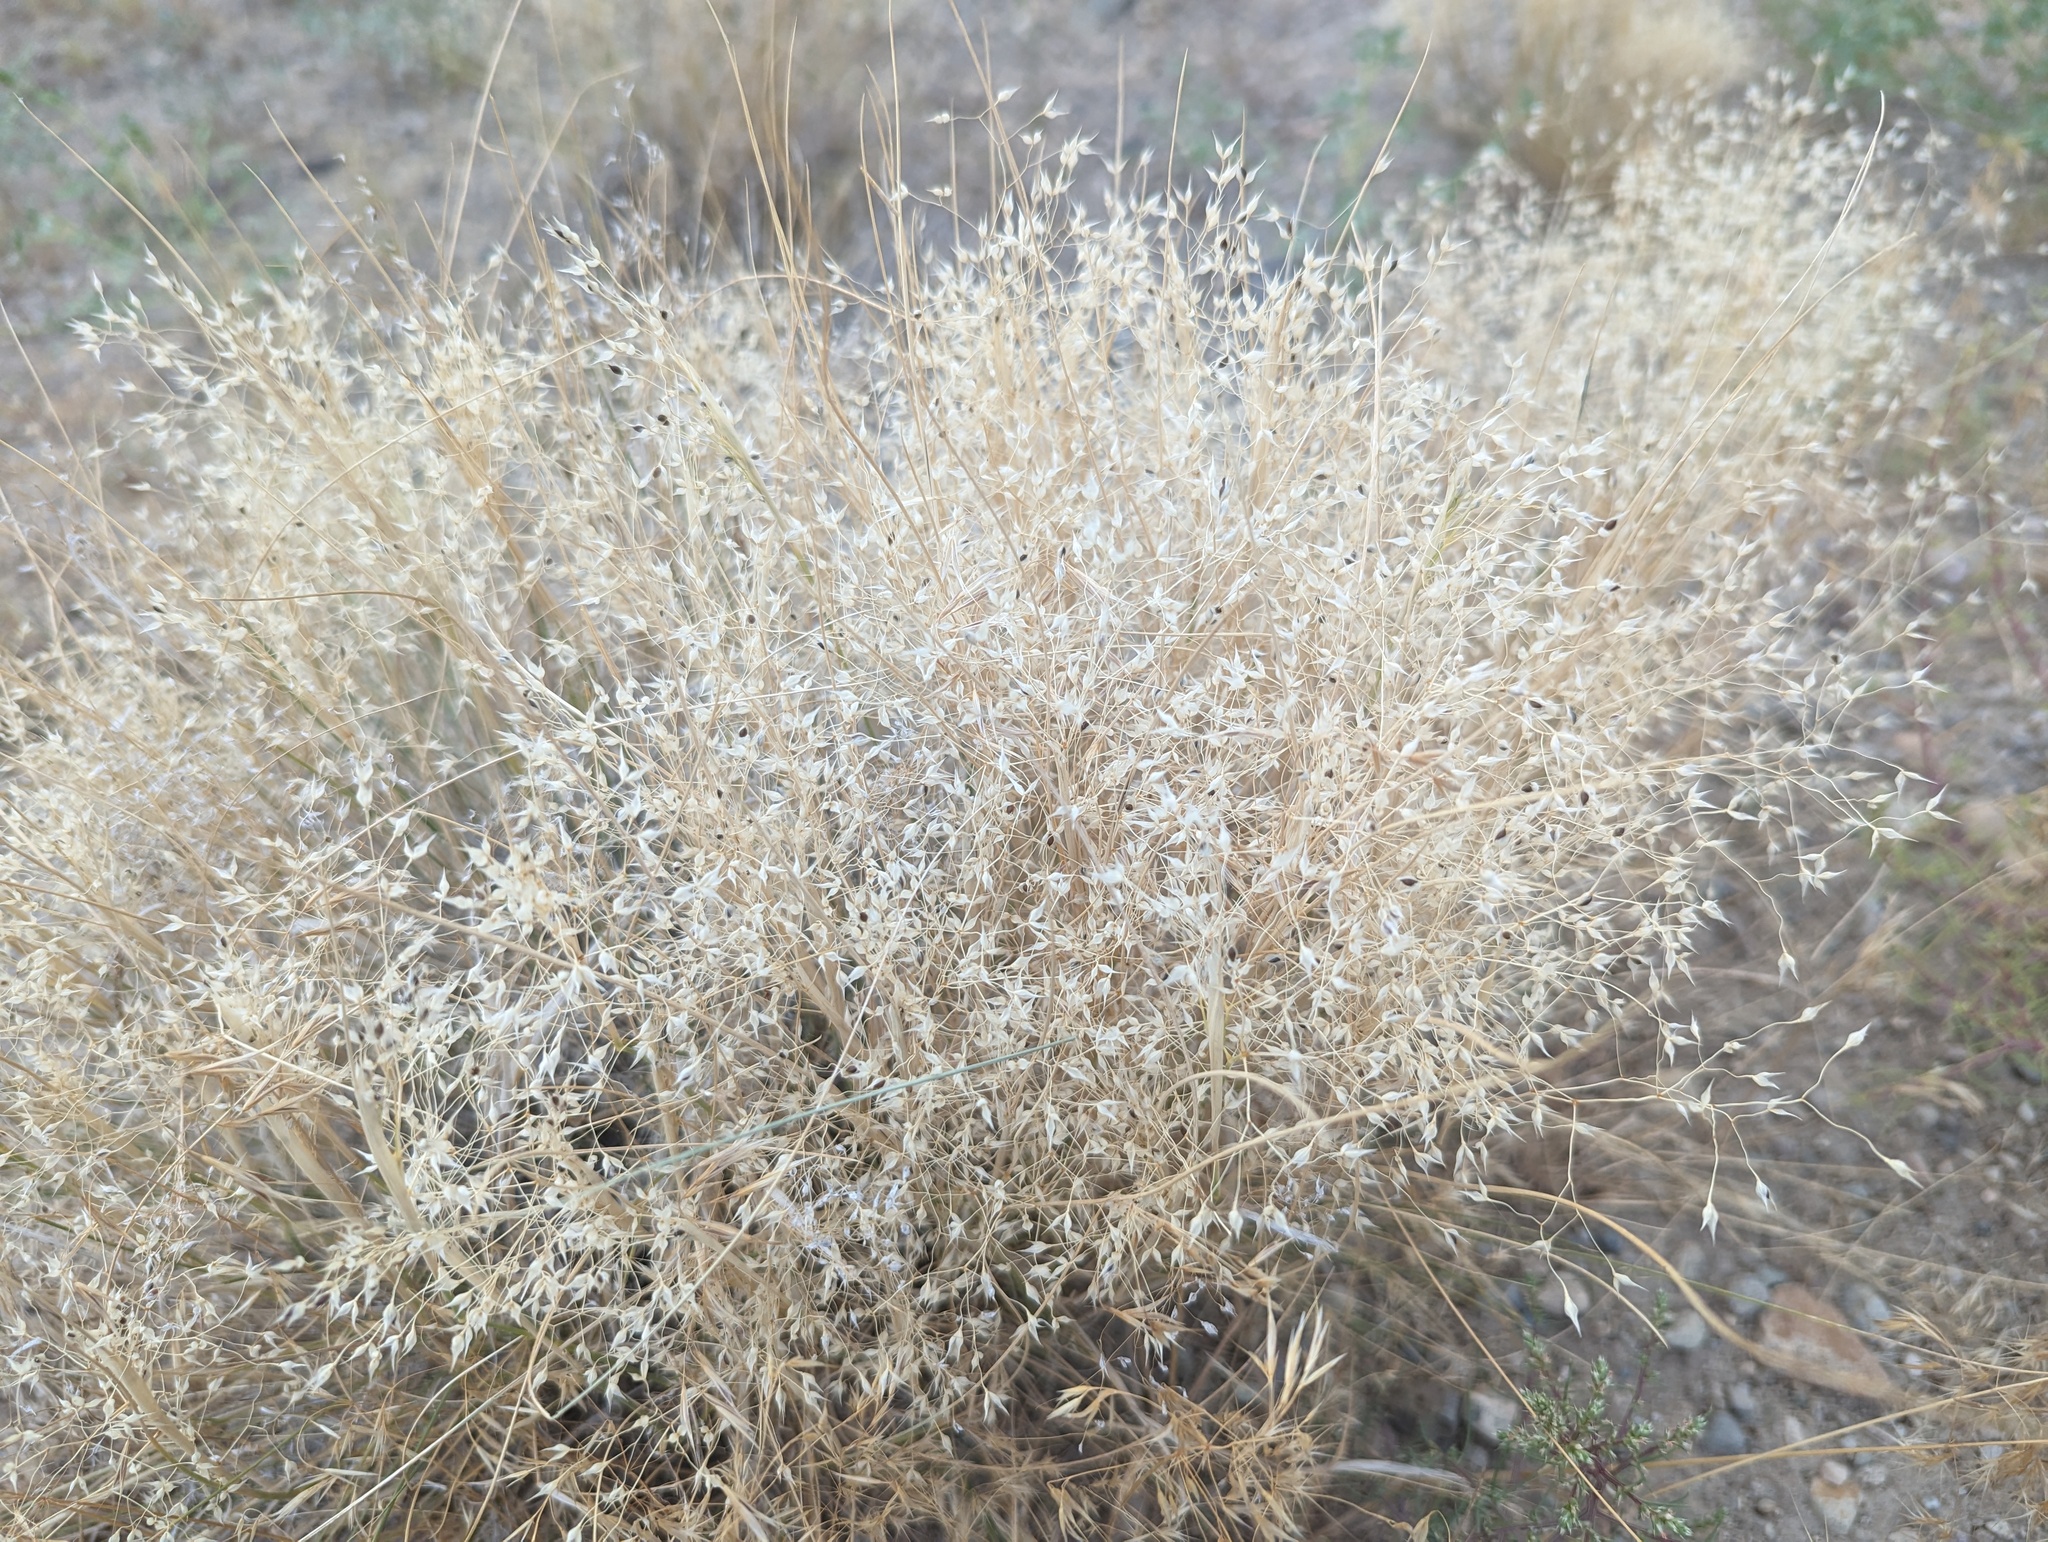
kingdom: Plantae
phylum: Tracheophyta
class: Liliopsida
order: Poales
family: Poaceae
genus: Eriocoma
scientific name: Eriocoma hymenoides
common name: Indian mountain ricegrass
